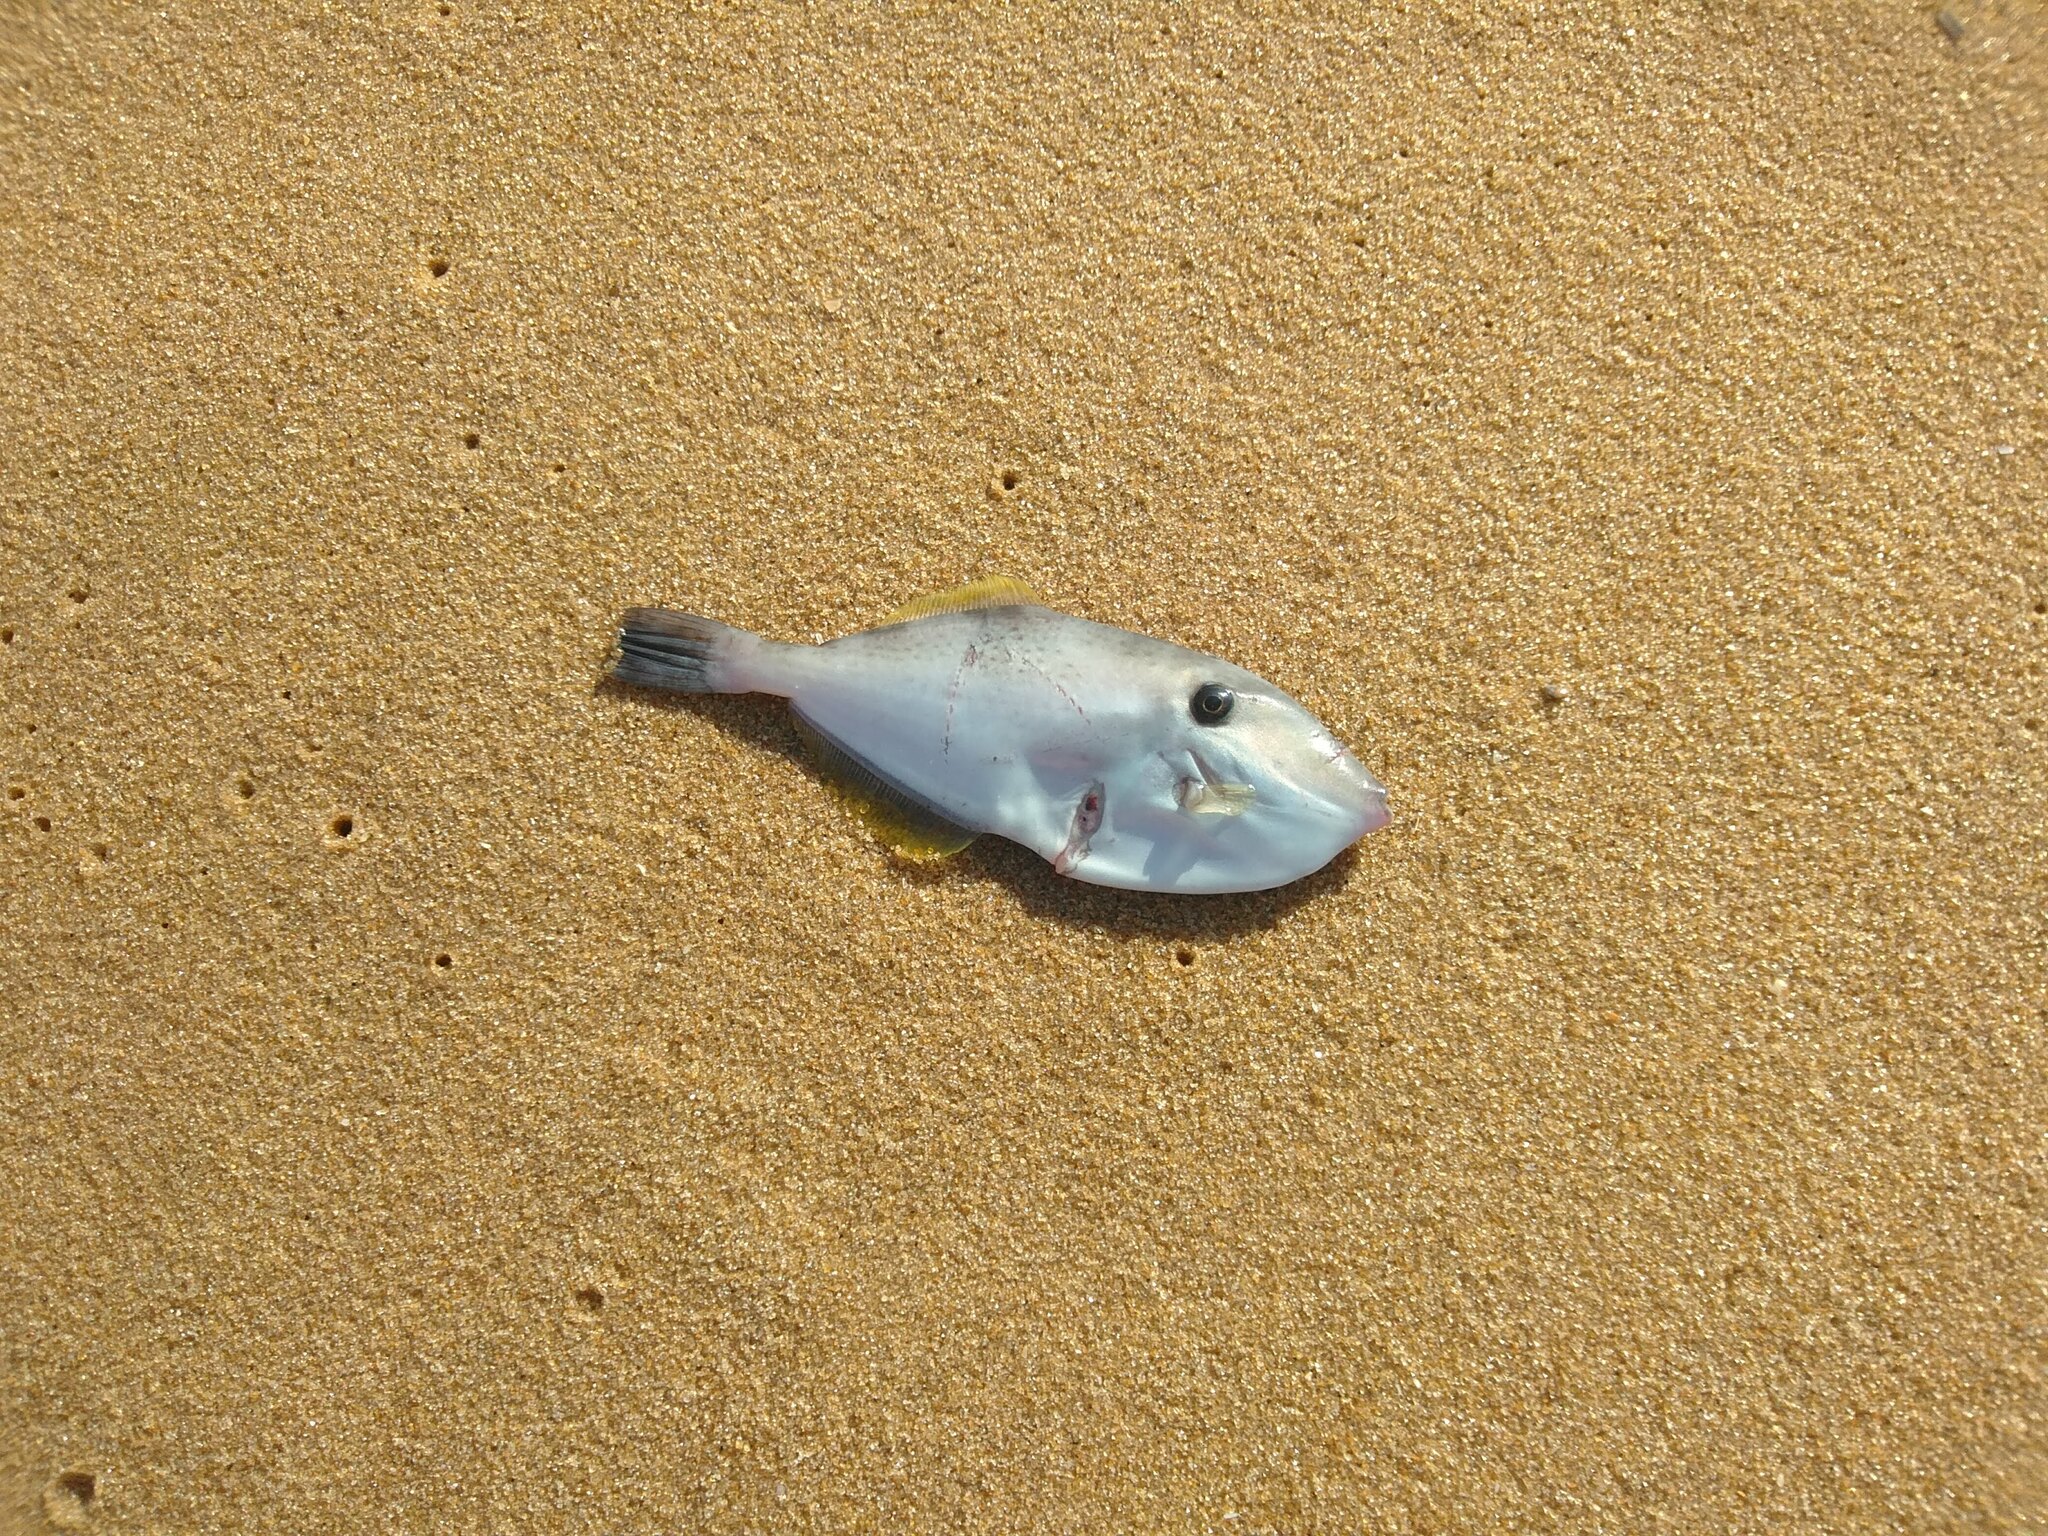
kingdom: Animalia
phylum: Chordata
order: Tetraodontiformes
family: Monacanthidae
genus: Aluterus
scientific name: Aluterus monoceros
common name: Batfish
